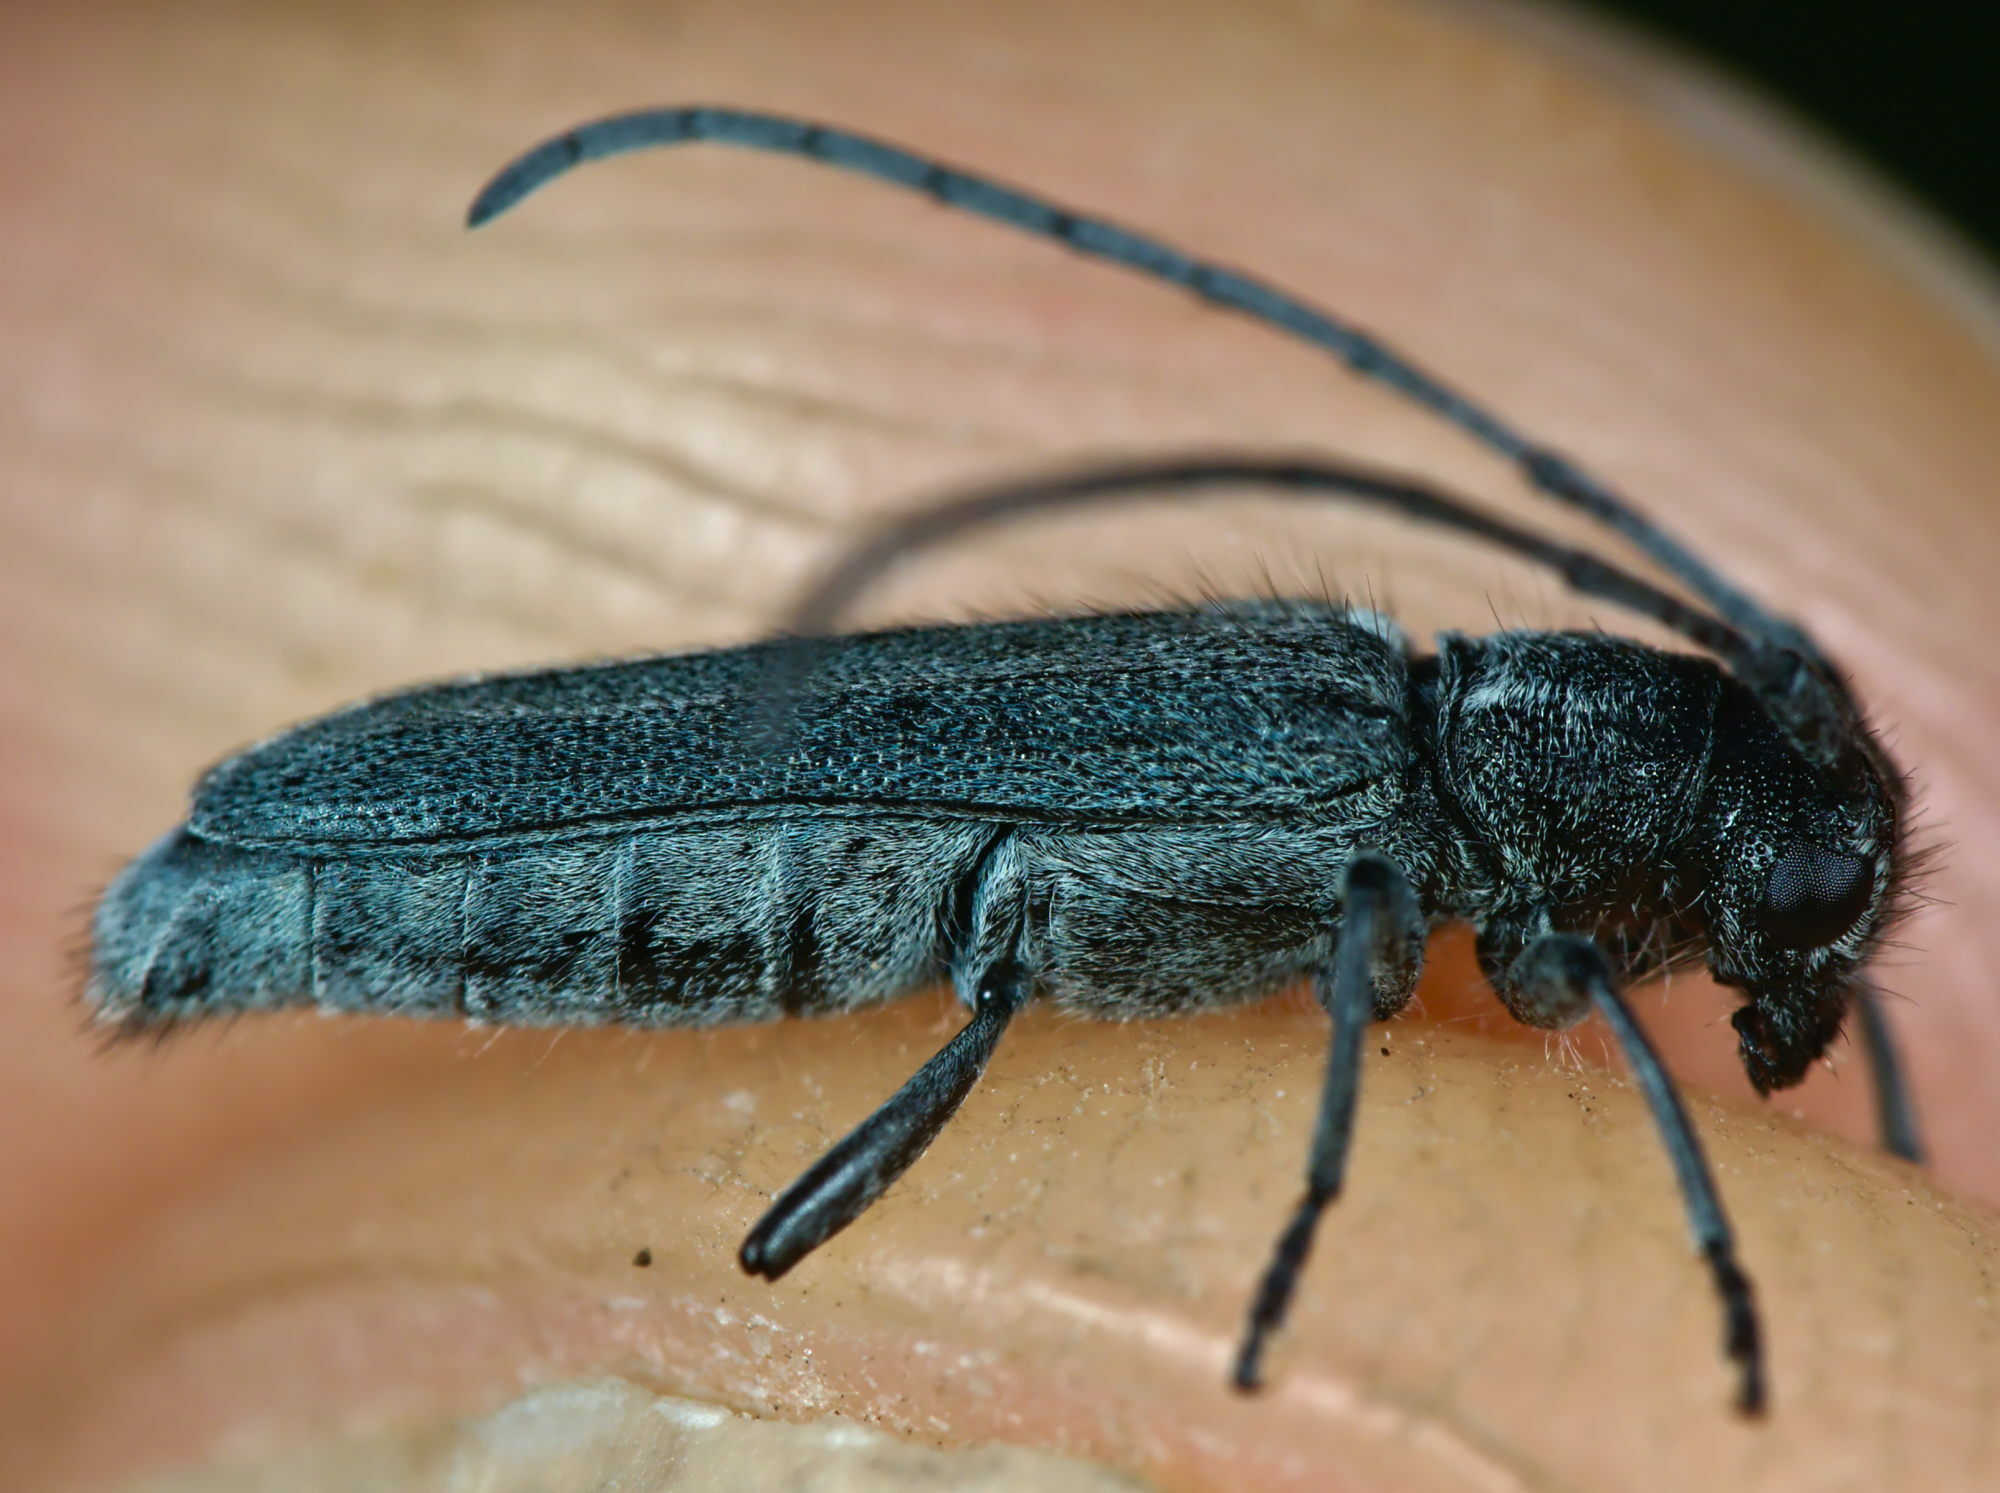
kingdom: Animalia
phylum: Arthropoda
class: Insecta
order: Coleoptera
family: Cerambycidae
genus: Phytoecia
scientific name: Phytoecia coerulescens
